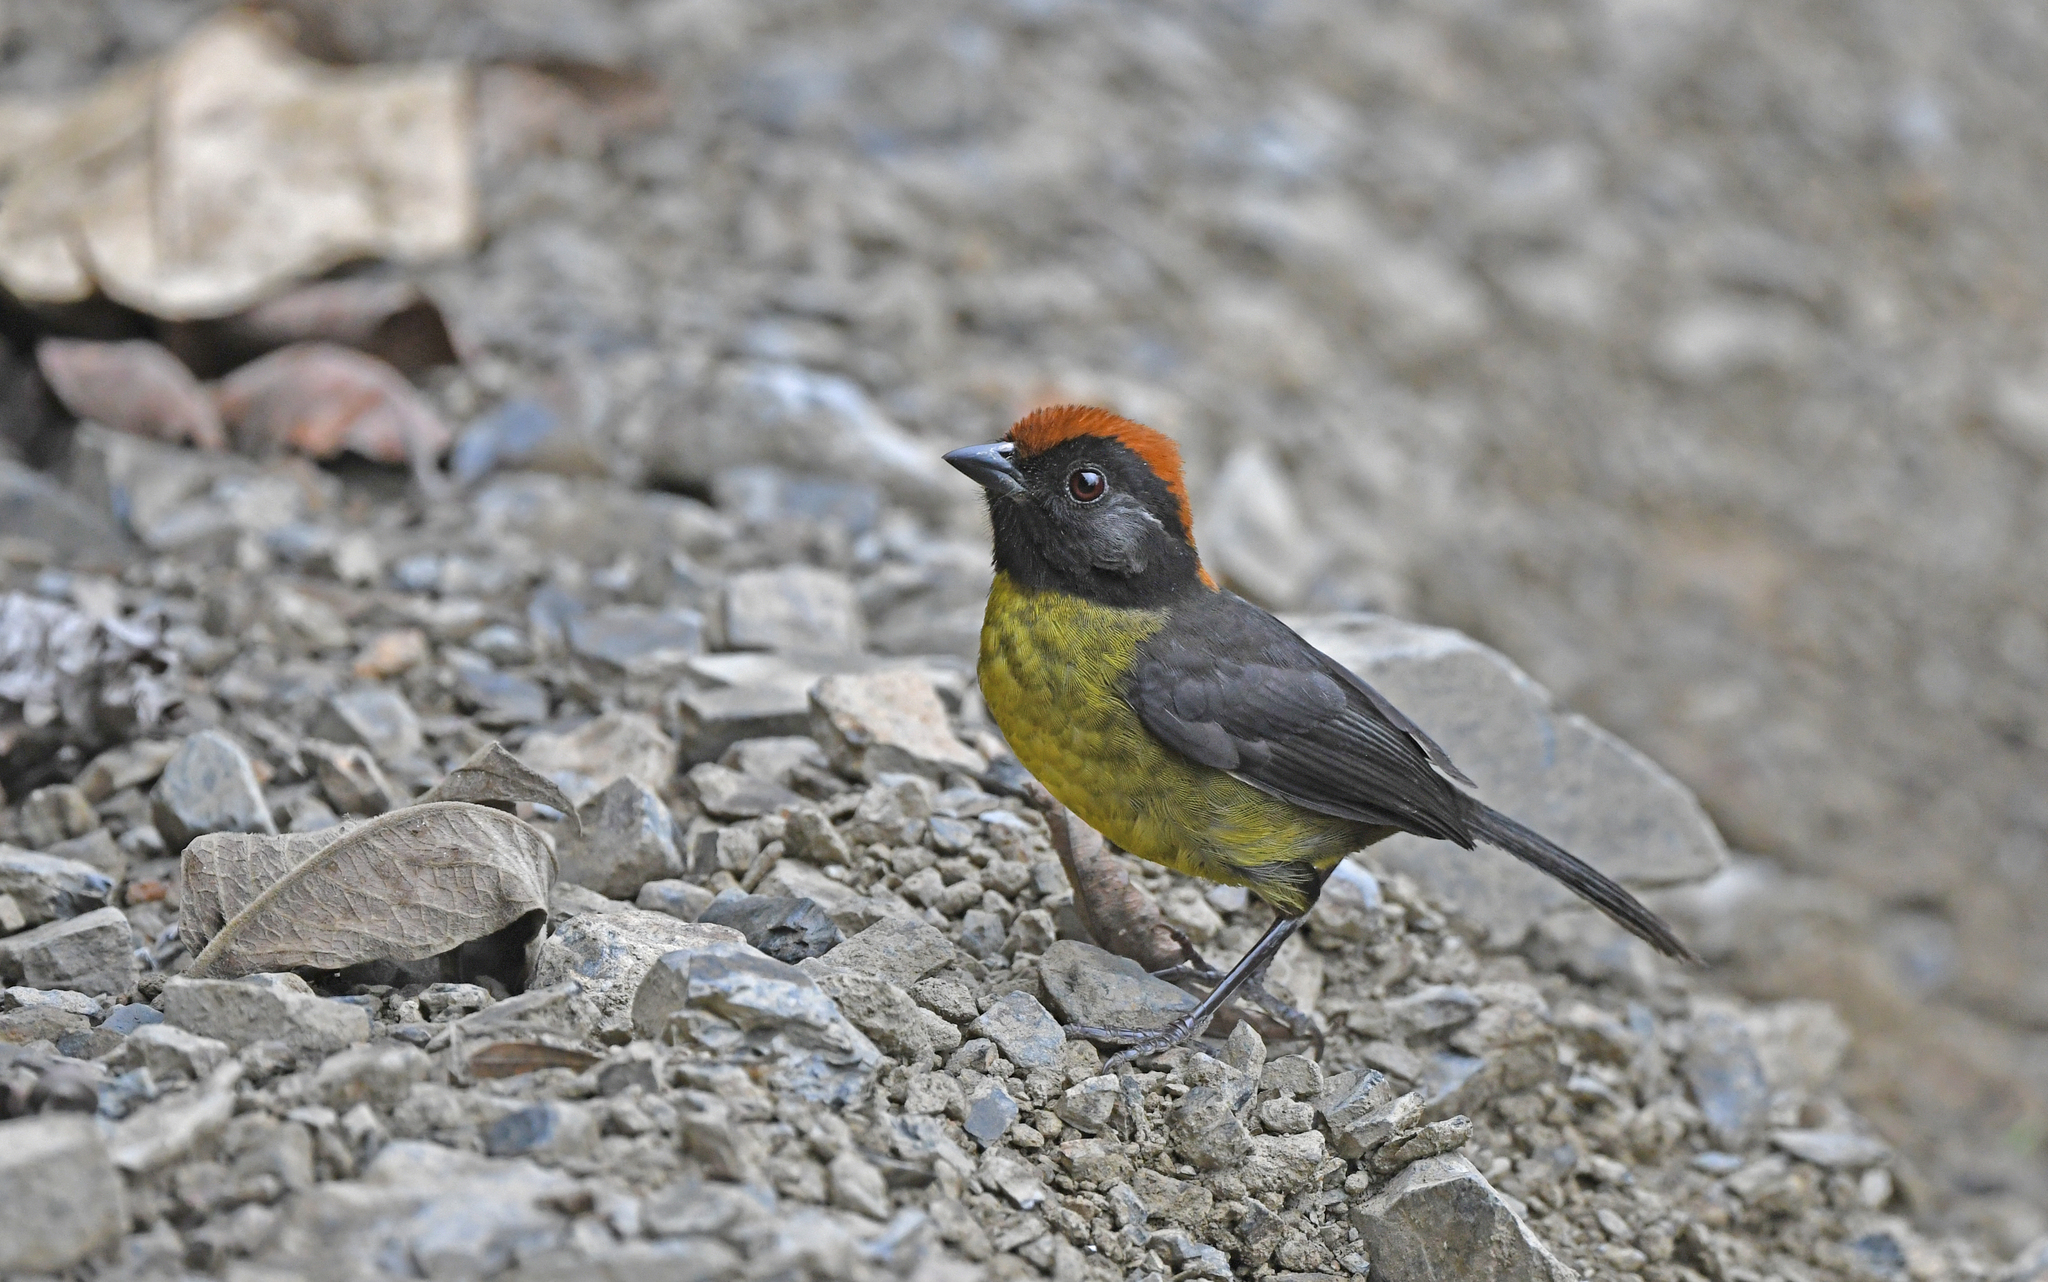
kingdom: Animalia
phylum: Chordata
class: Aves
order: Passeriformes
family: Passerellidae
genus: Atlapetes
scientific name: Atlapetes melanolaemus
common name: Grey-eared brush finch
